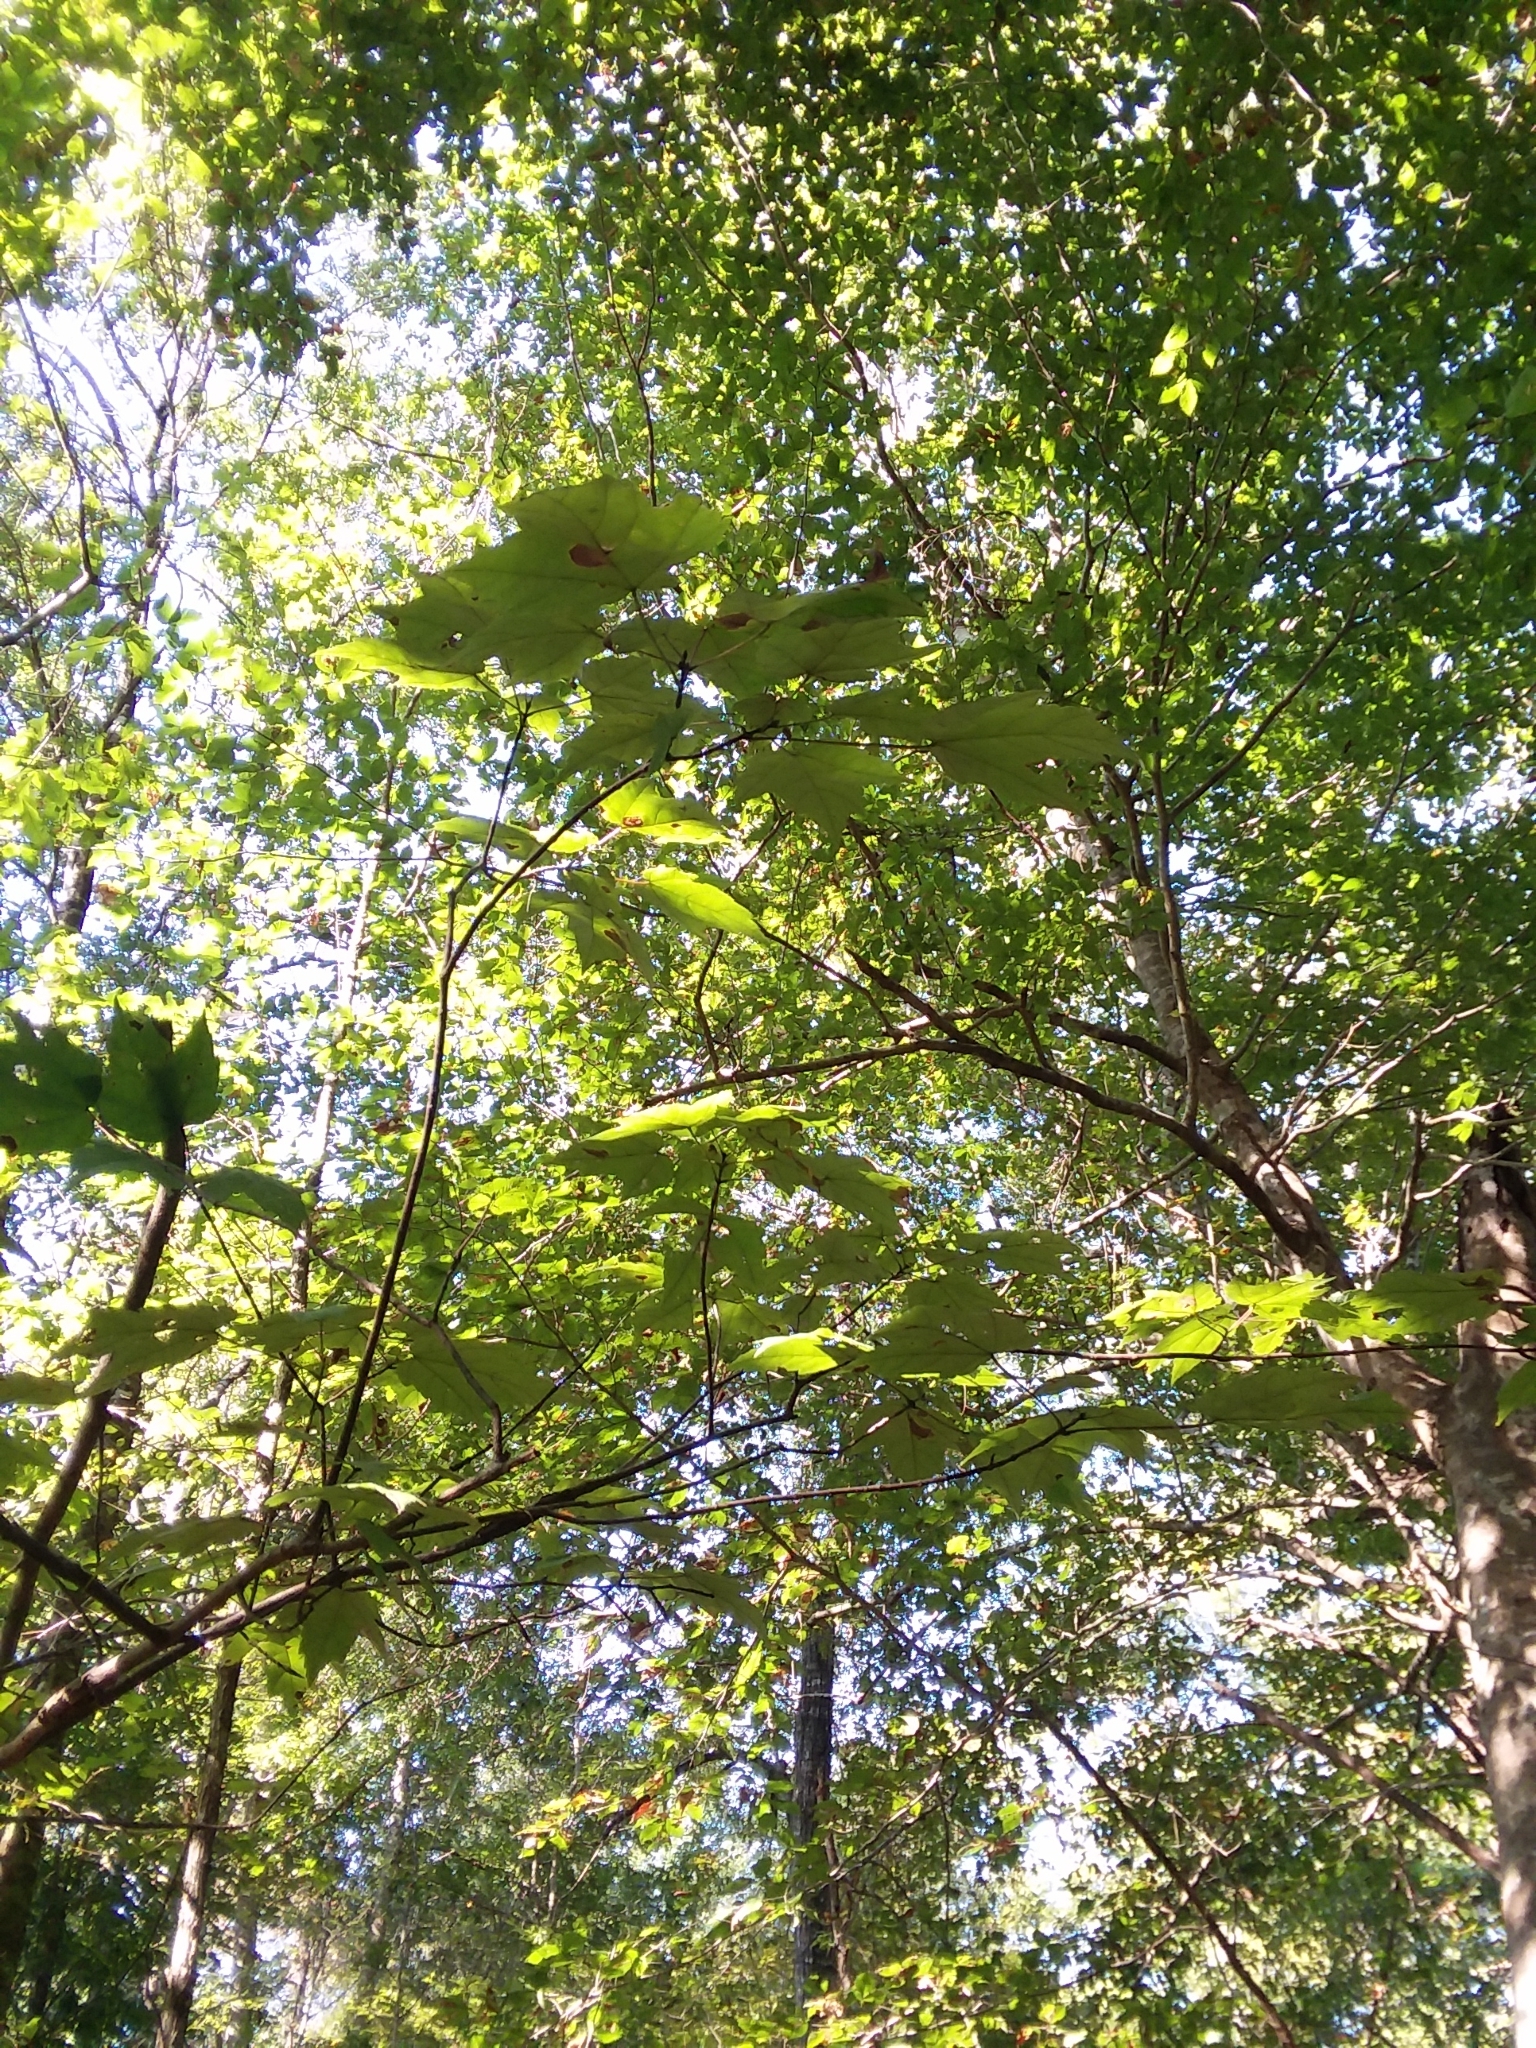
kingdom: Plantae
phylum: Tracheophyta
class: Magnoliopsida
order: Sapindales
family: Sapindaceae
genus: Acer
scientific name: Acer rubrum
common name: Red maple
